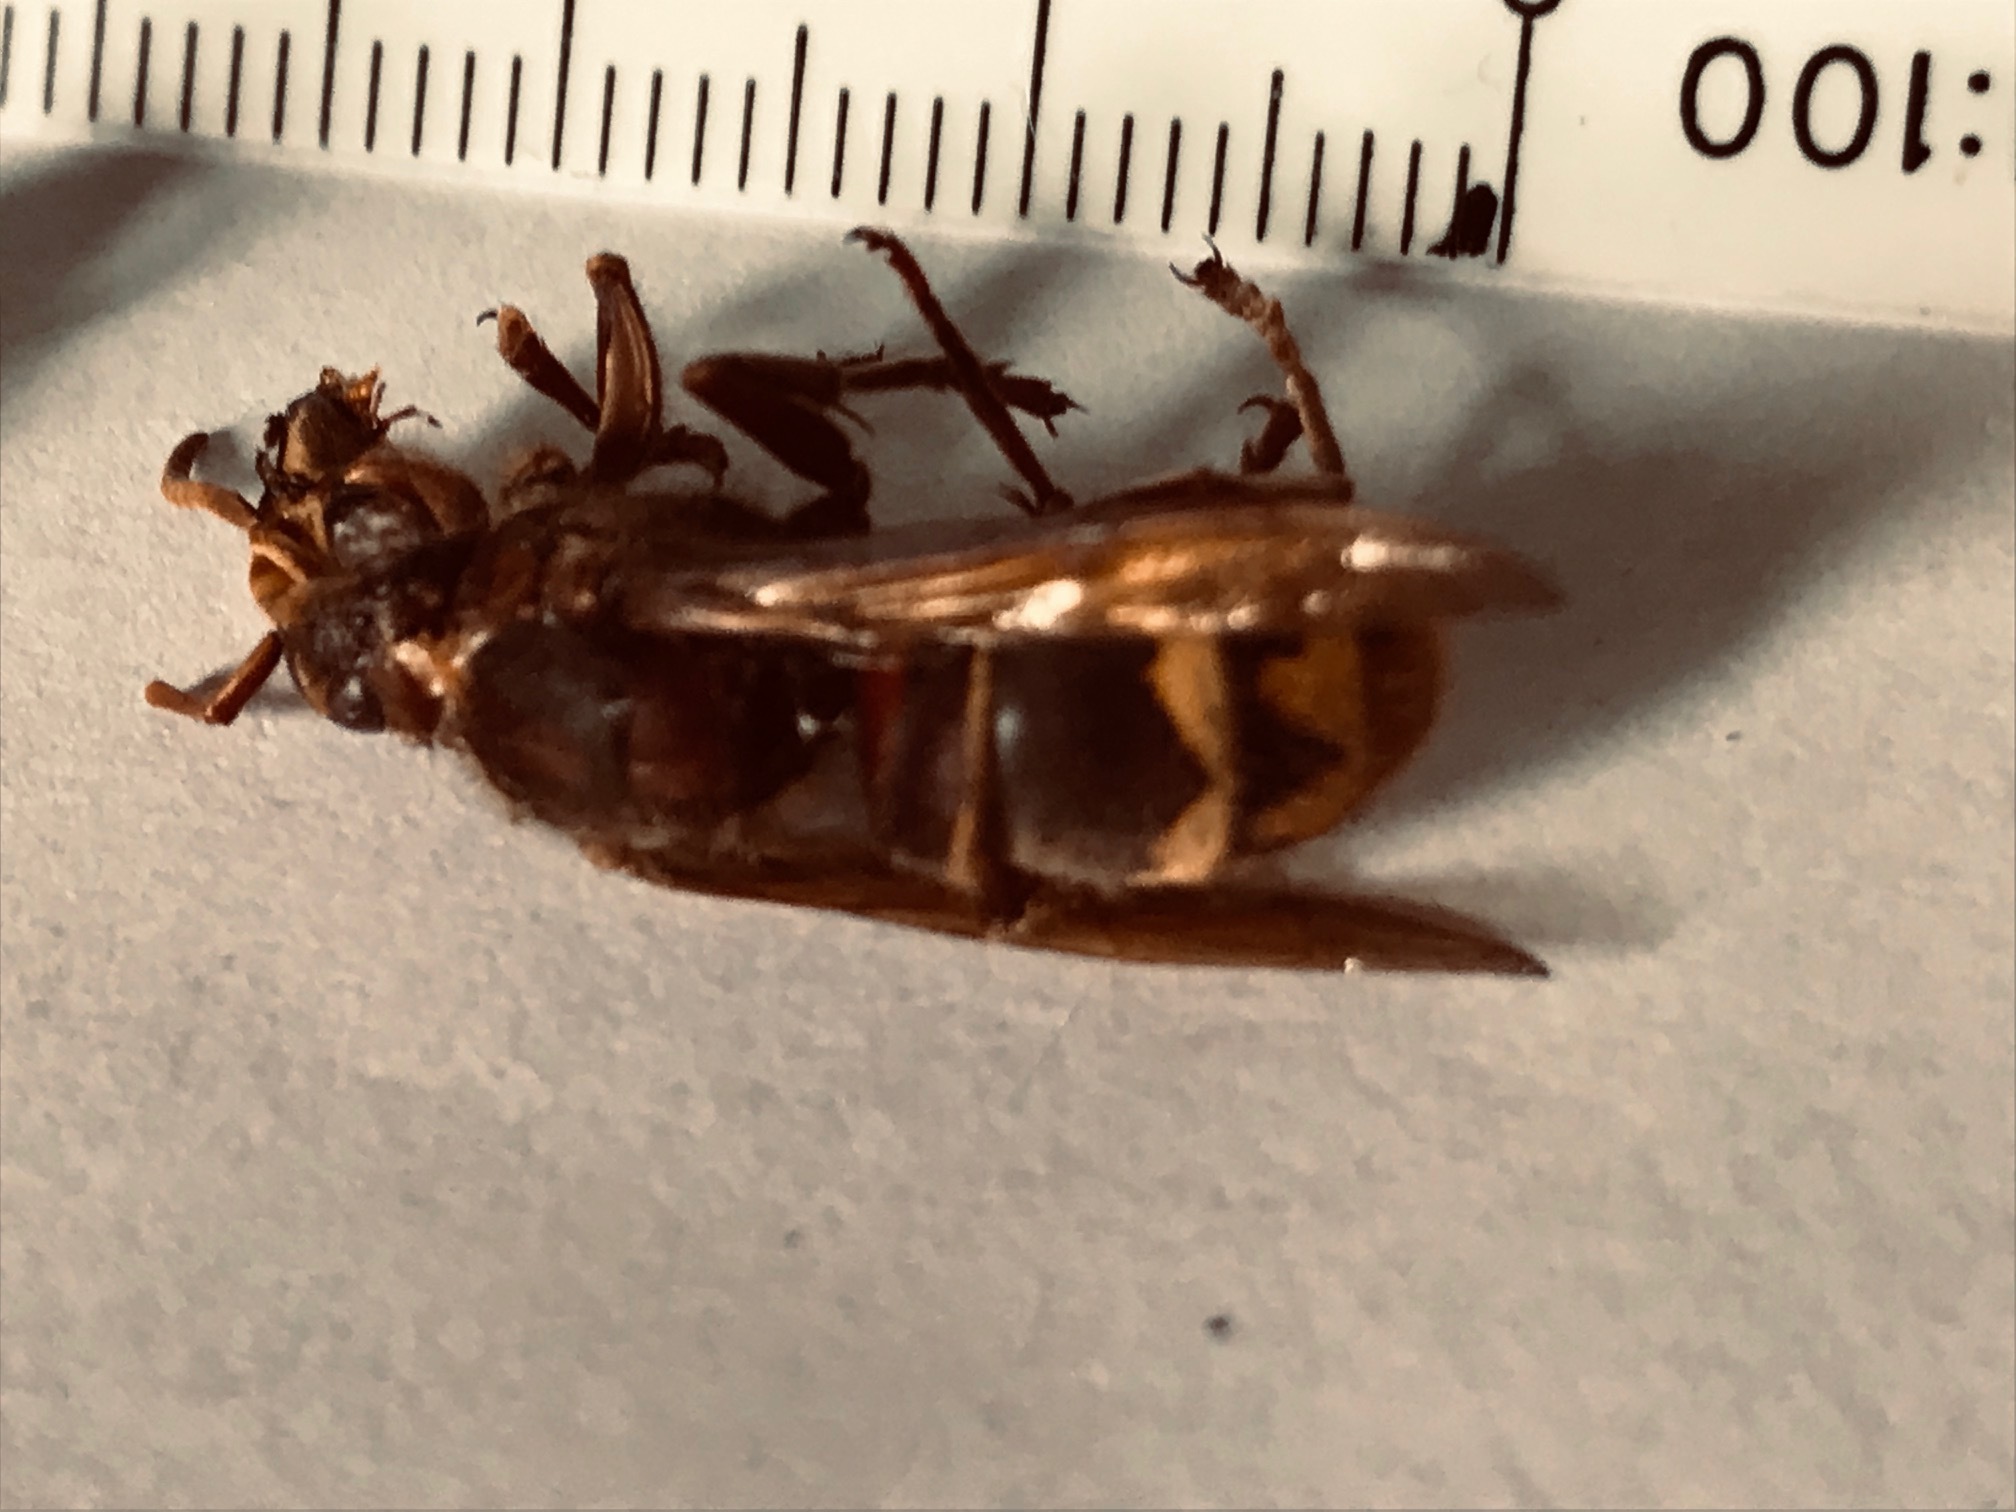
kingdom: Animalia
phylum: Arthropoda
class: Insecta
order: Hymenoptera
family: Vespidae
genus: Vespa
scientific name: Vespa crabro
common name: Hornet
